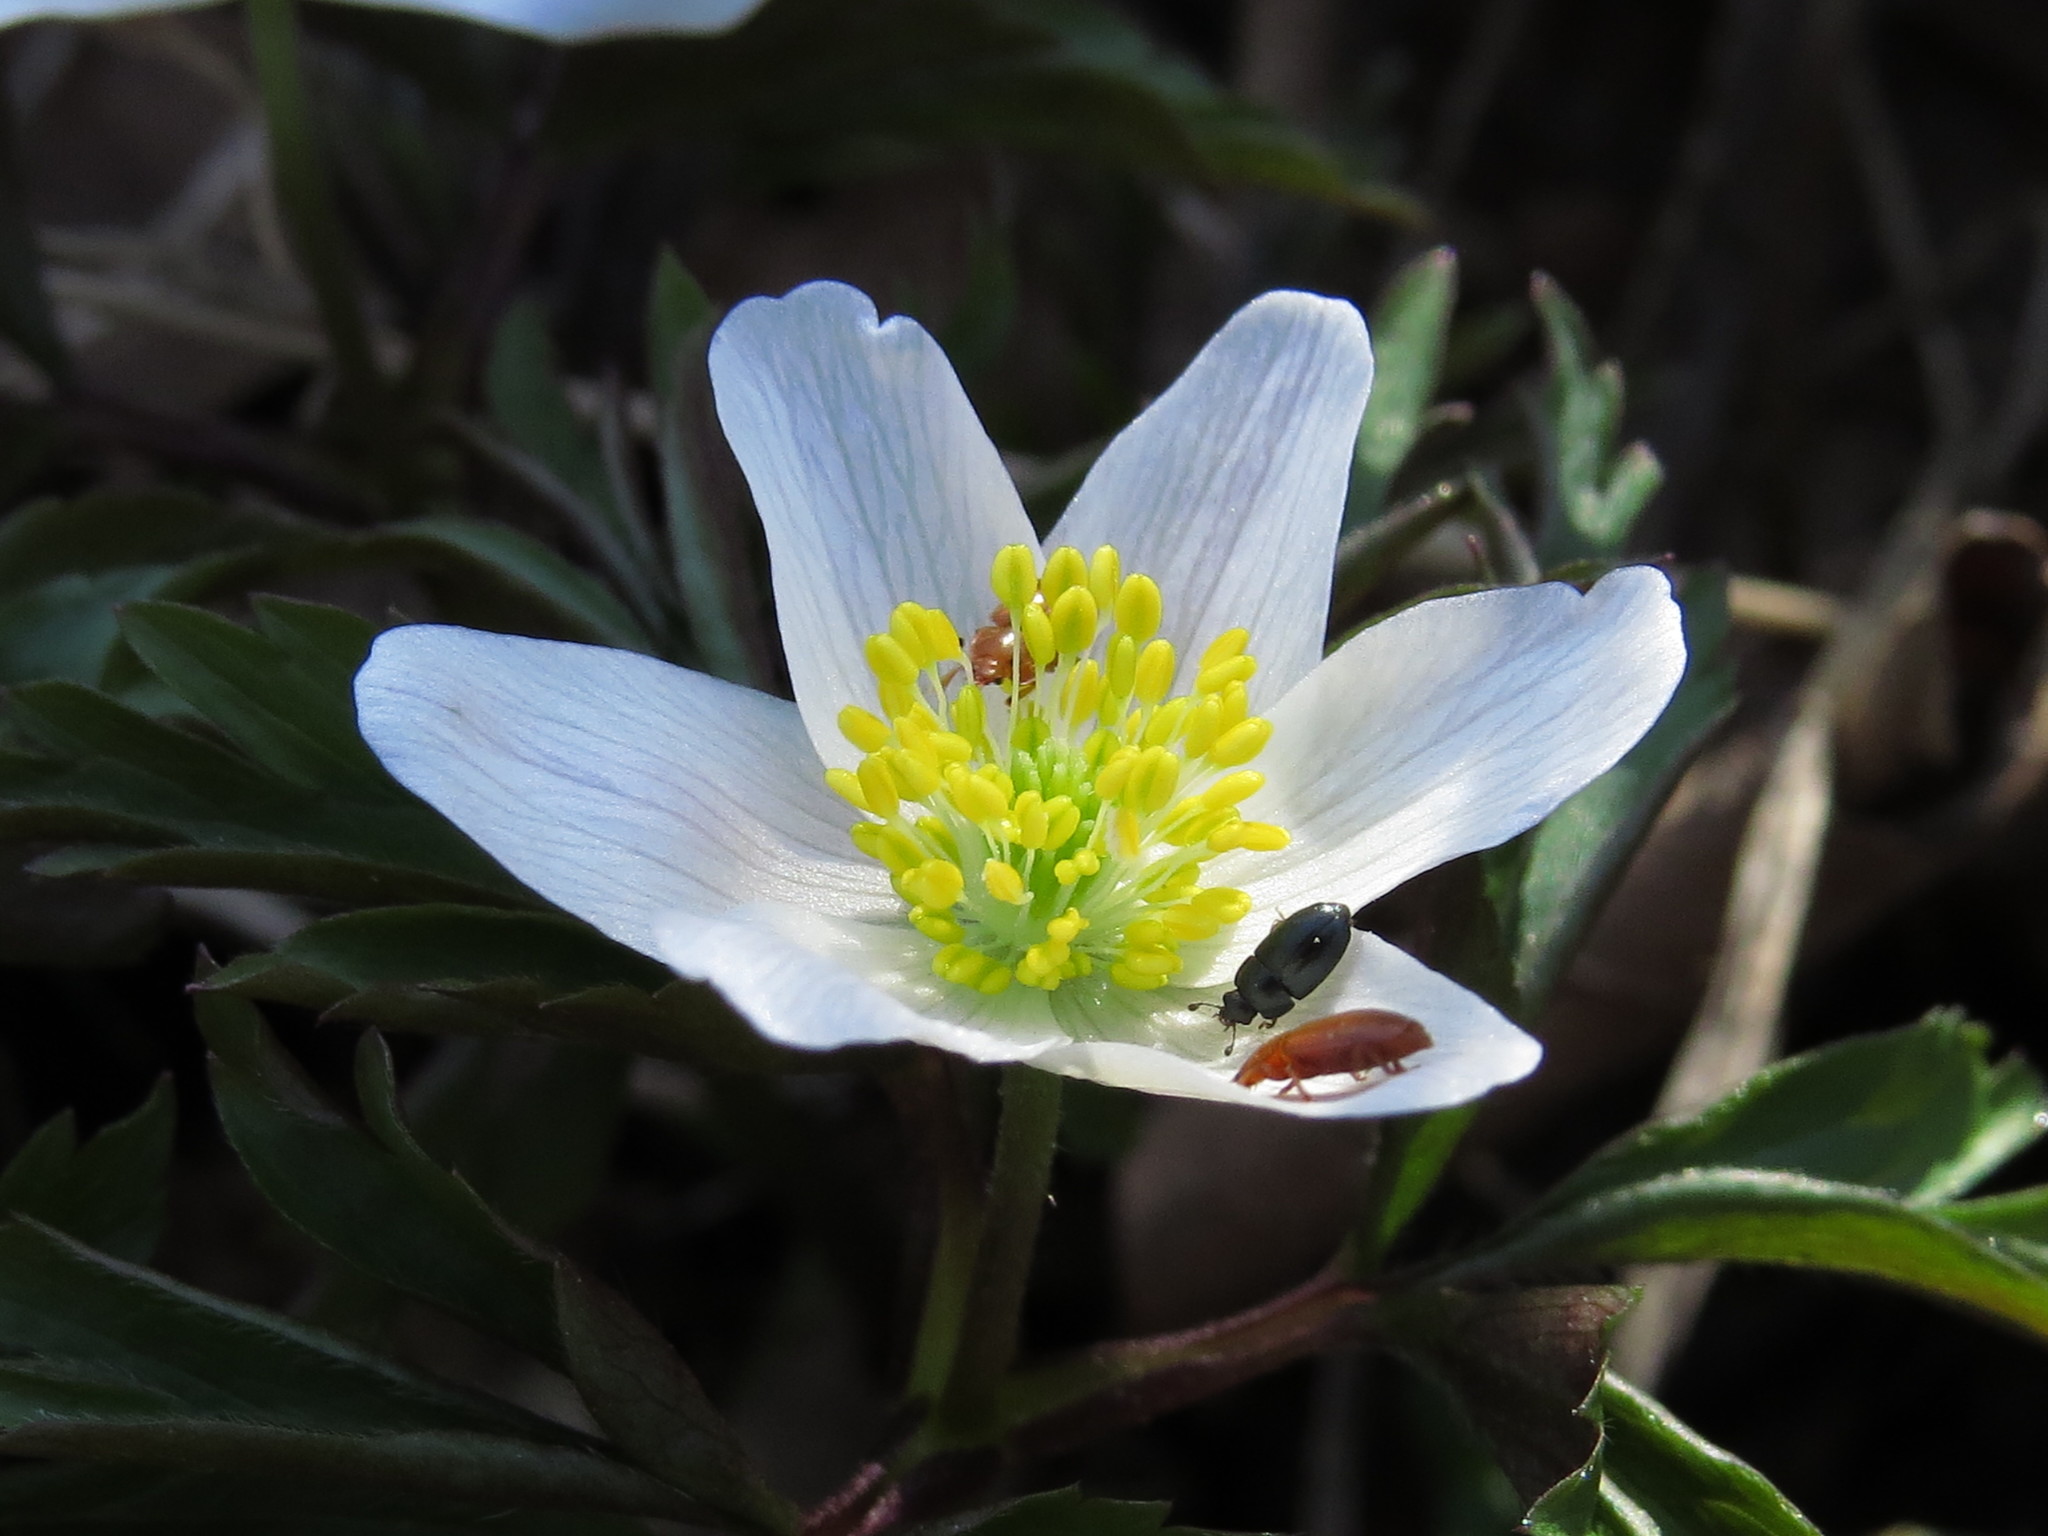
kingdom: Plantae
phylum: Tracheophyta
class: Magnoliopsida
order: Ranunculales
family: Ranunculaceae
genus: Anemone
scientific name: Anemone nemorosa
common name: Wood anemone
